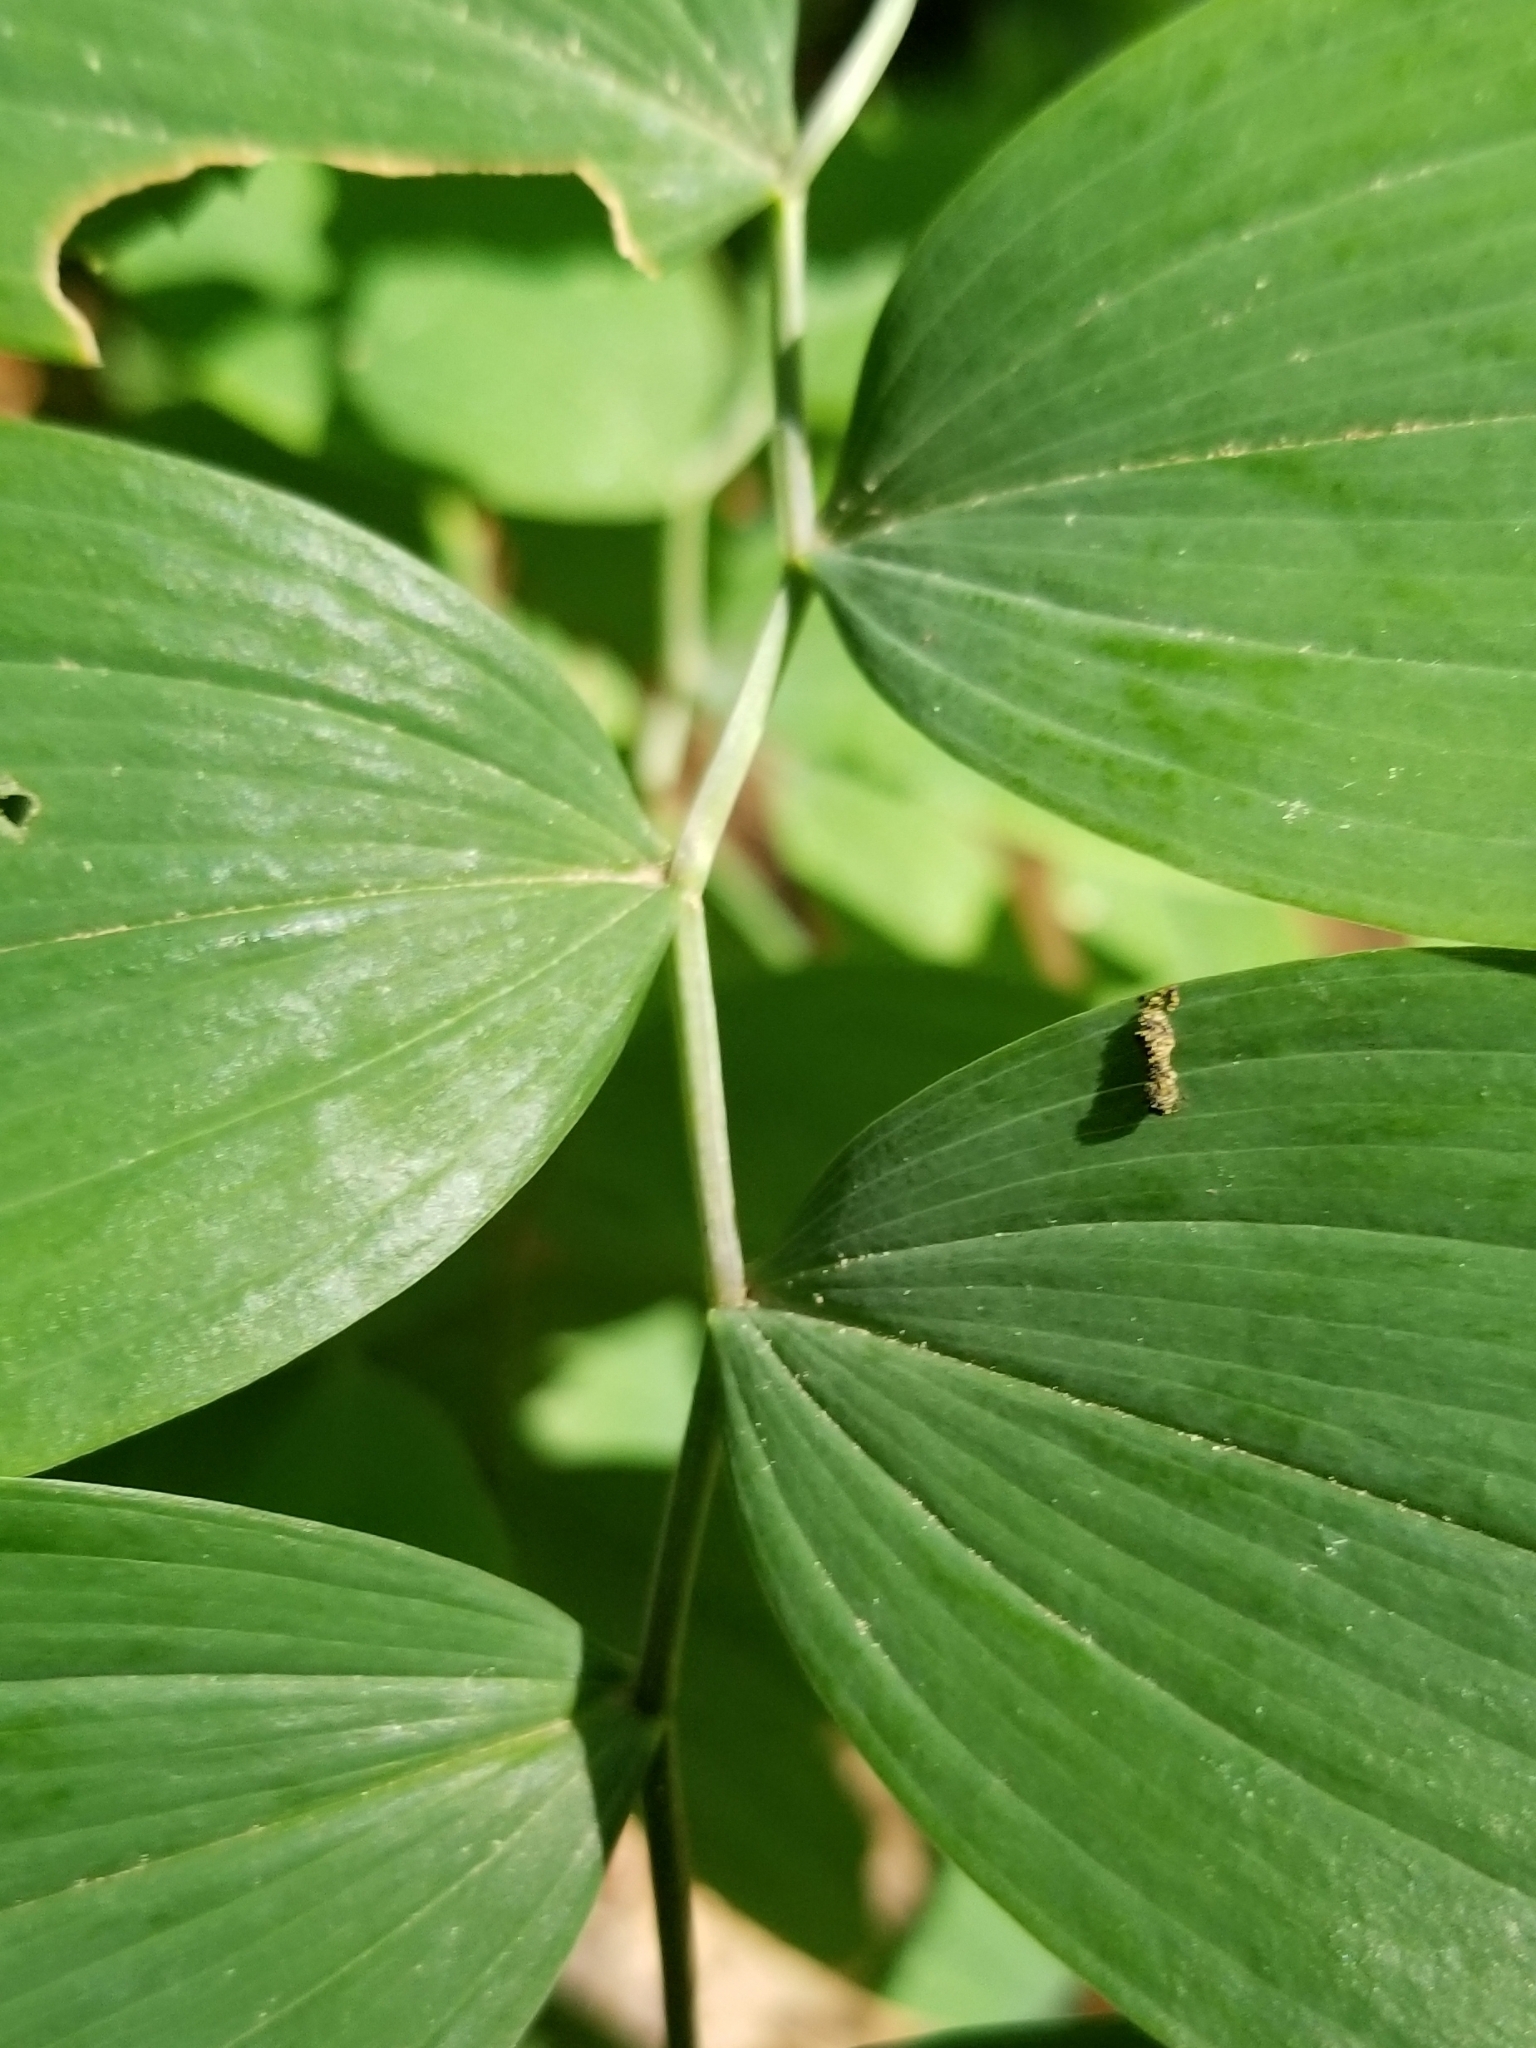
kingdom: Plantae
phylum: Tracheophyta
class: Liliopsida
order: Liliales
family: Colchicaceae
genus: Uvularia
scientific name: Uvularia sessilifolia
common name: Straw-lily
